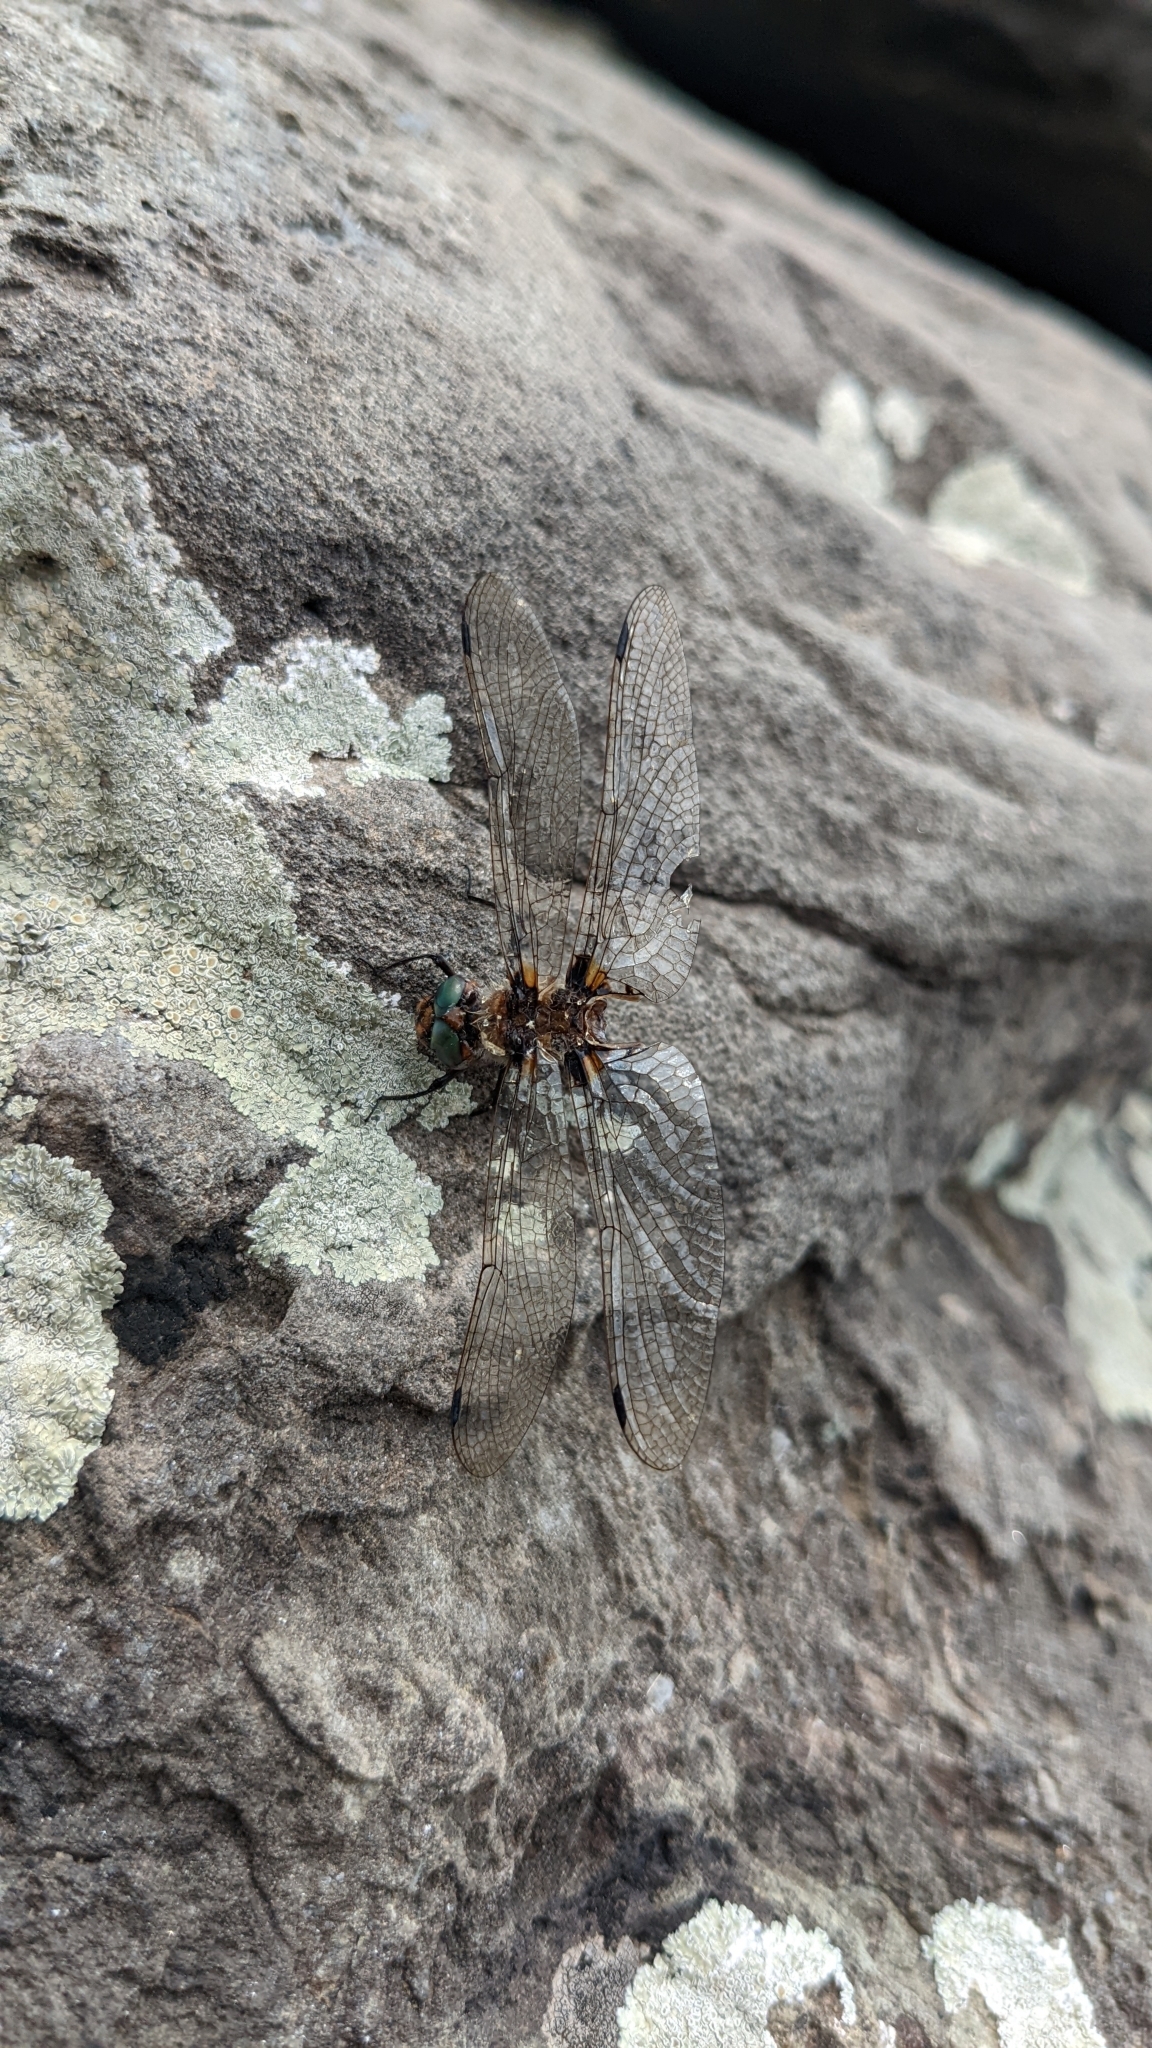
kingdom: Animalia
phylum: Arthropoda
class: Insecta
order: Odonata
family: Corduliidae
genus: Helocordulia
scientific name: Helocordulia uhleri
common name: Uhler's sundragon
